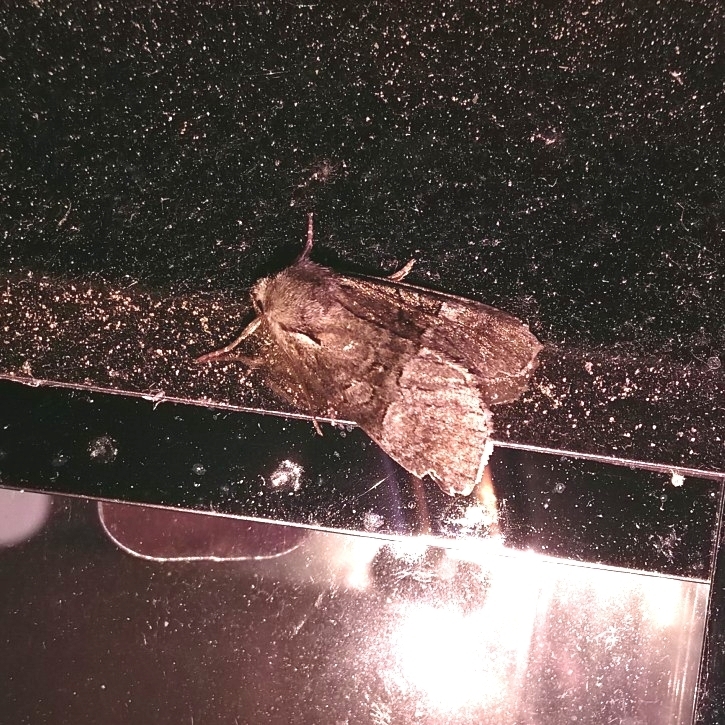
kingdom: Animalia
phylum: Arthropoda
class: Insecta
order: Lepidoptera
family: Noctuidae
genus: Brachylomia
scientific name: Brachylomia viminalis
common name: Minor shoulder-knot
